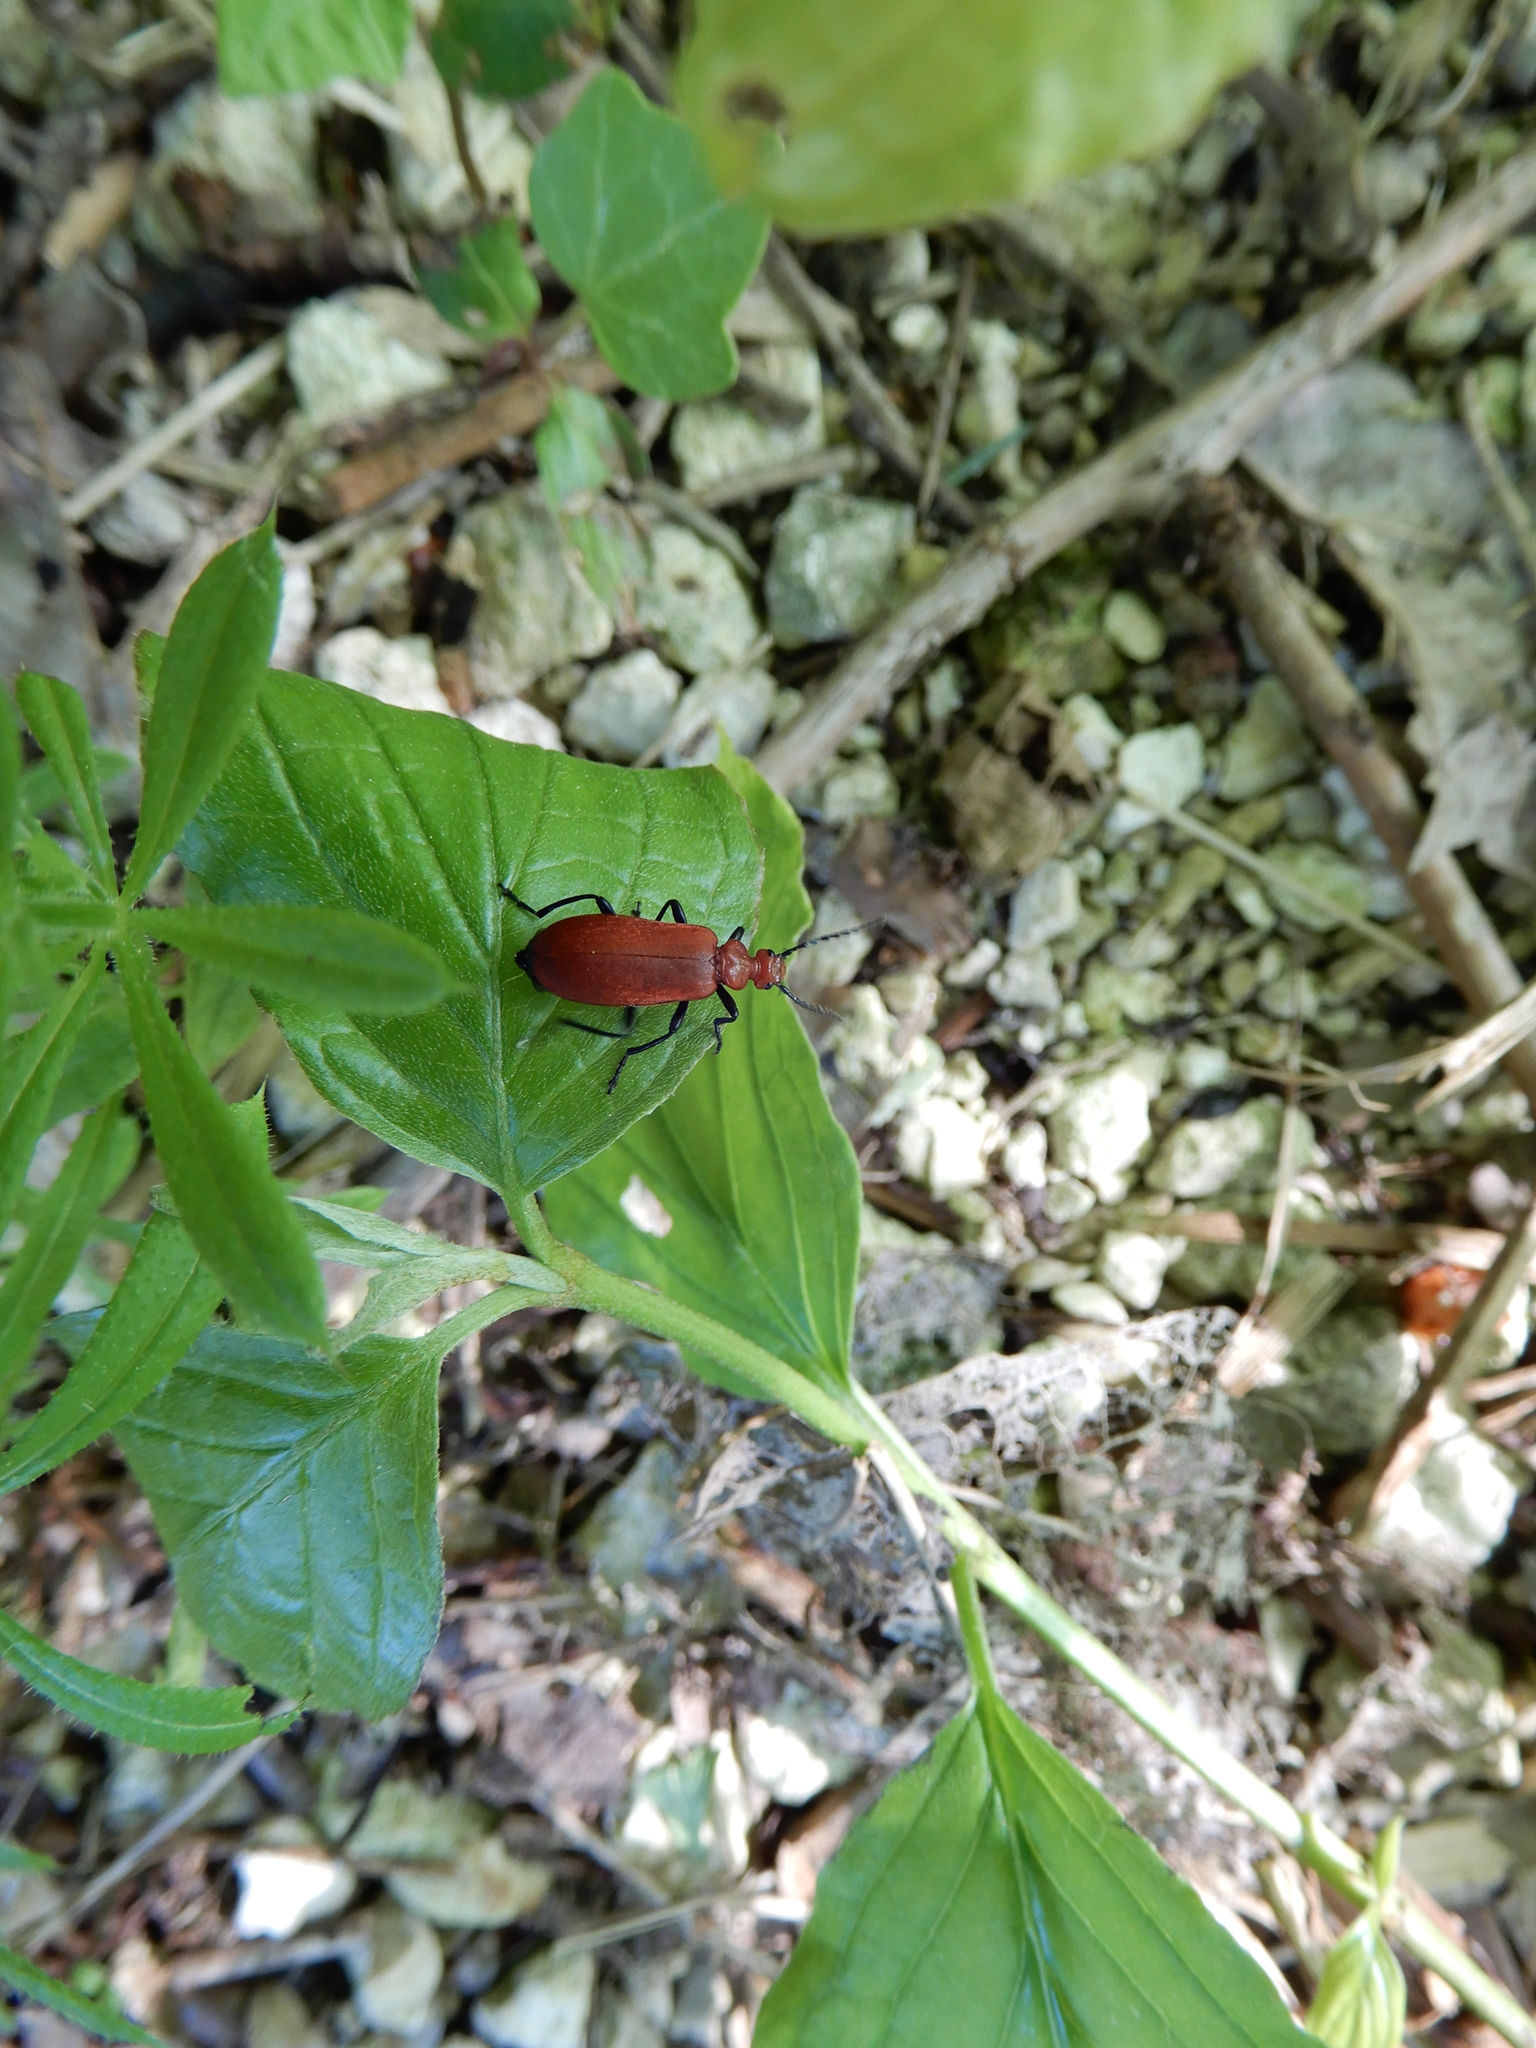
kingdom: Animalia
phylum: Arthropoda
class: Insecta
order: Coleoptera
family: Pyrochroidae
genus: Pyrochroa
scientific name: Pyrochroa serraticornis
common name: Red-headed cardinal beetle
